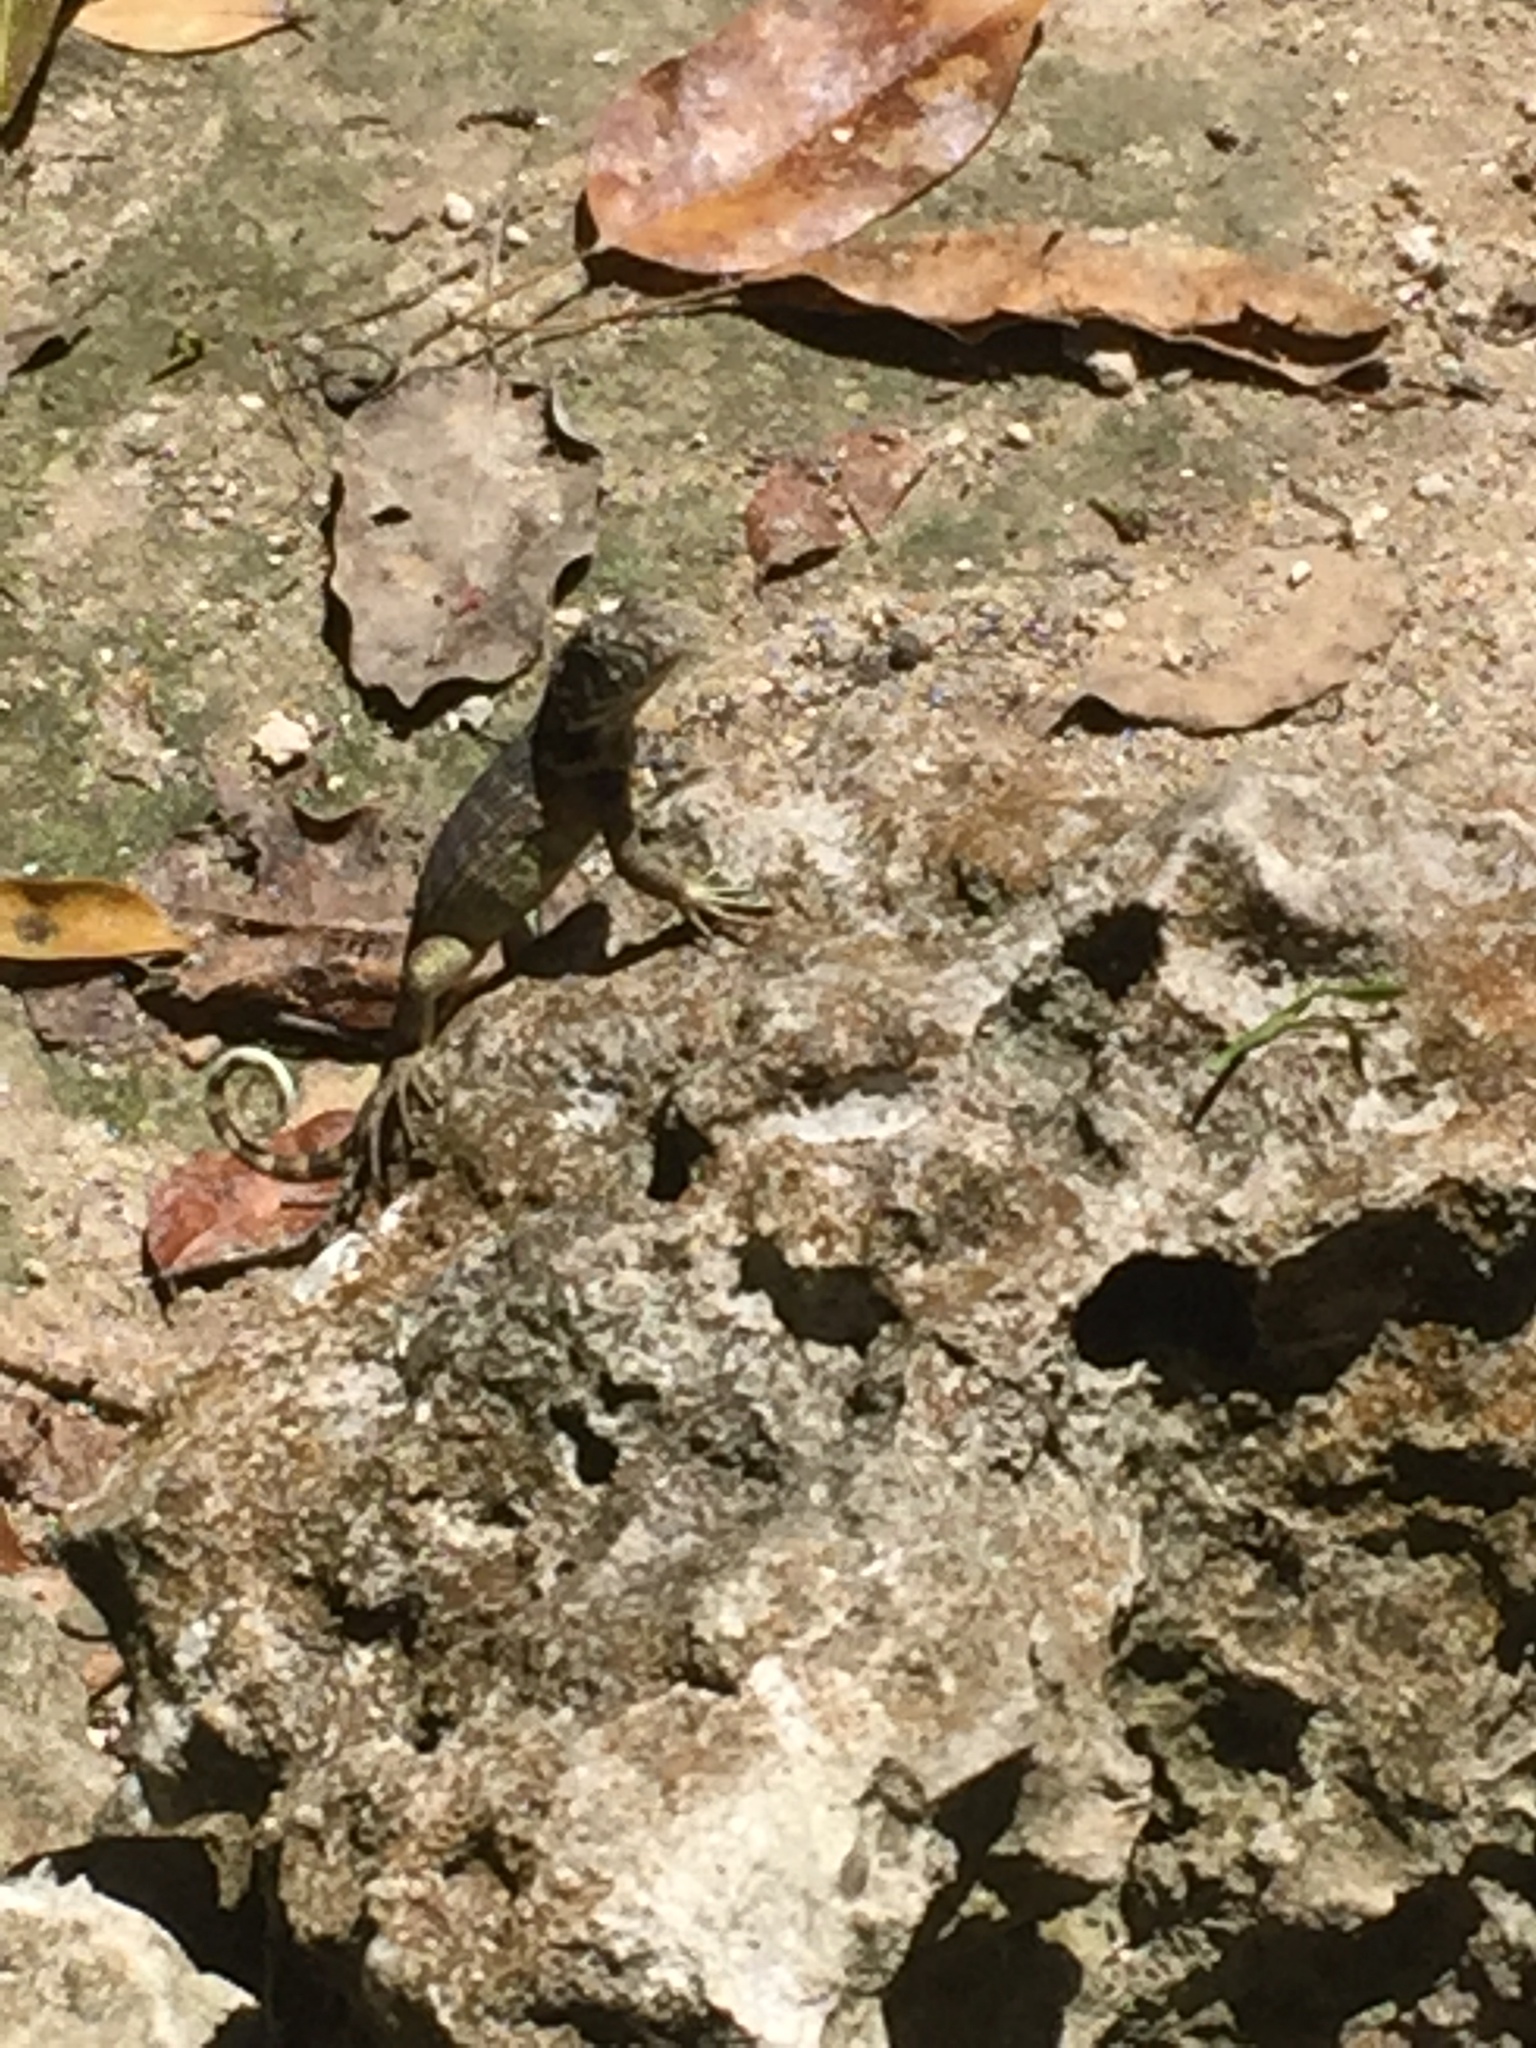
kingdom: Animalia
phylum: Chordata
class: Squamata
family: Leiocephalidae
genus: Leiocephalus
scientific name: Leiocephalus carinatus
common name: Northern curly-tailed lizard
